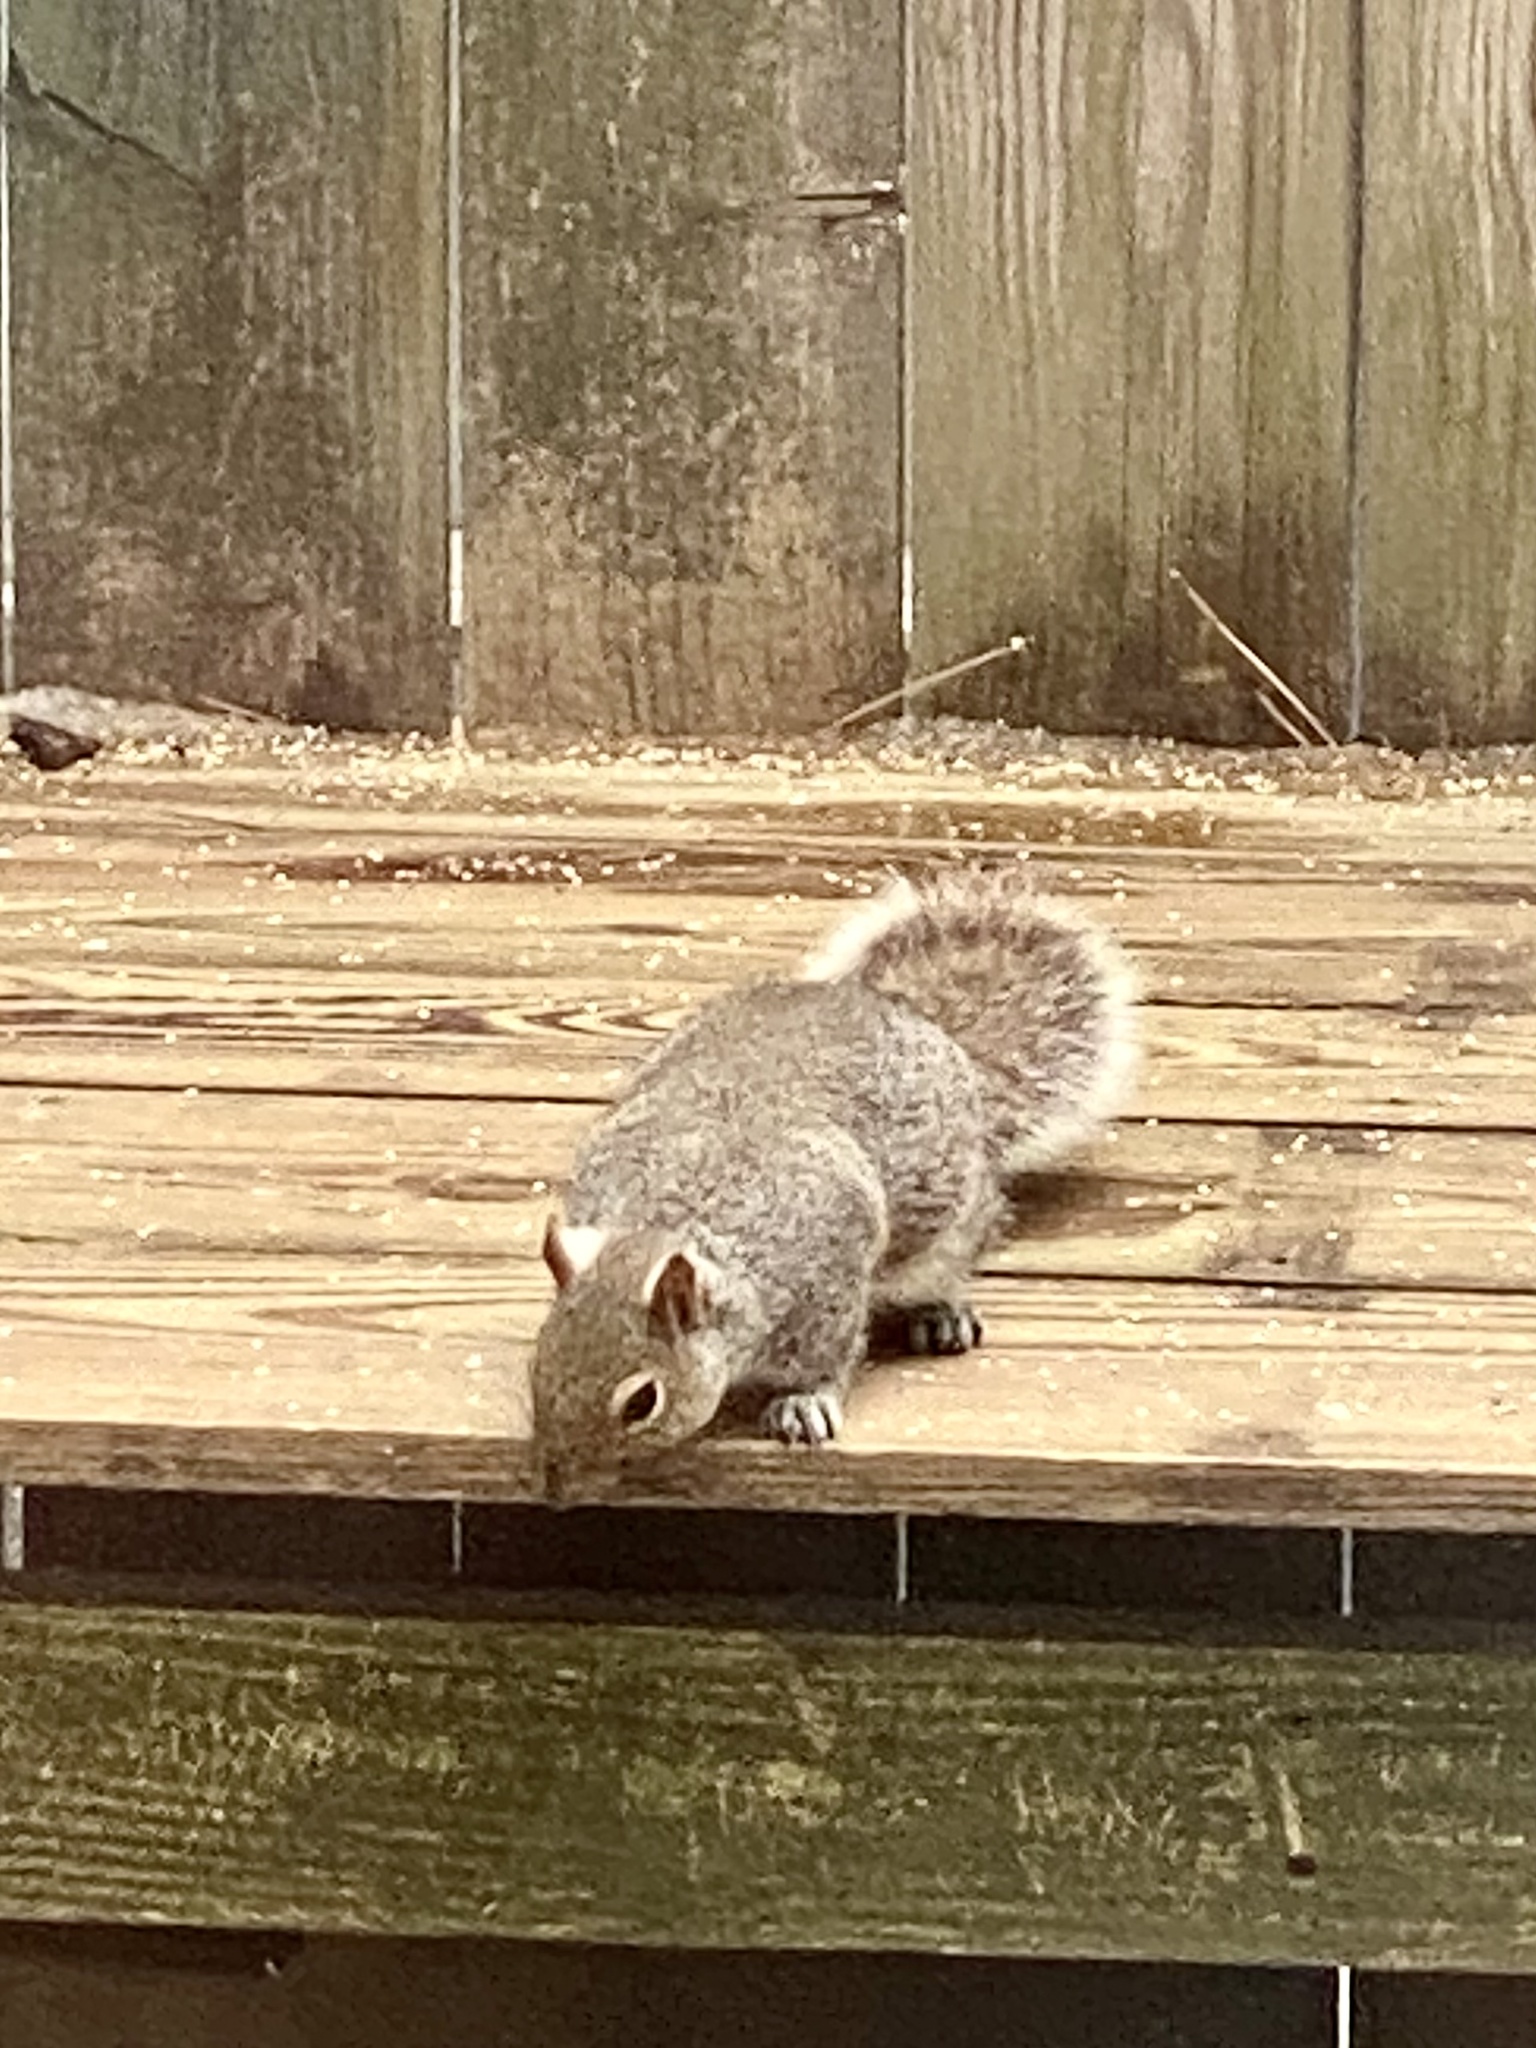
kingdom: Animalia
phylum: Chordata
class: Mammalia
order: Rodentia
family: Sciuridae
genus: Sciurus
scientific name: Sciurus carolinensis
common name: Eastern gray squirrel
